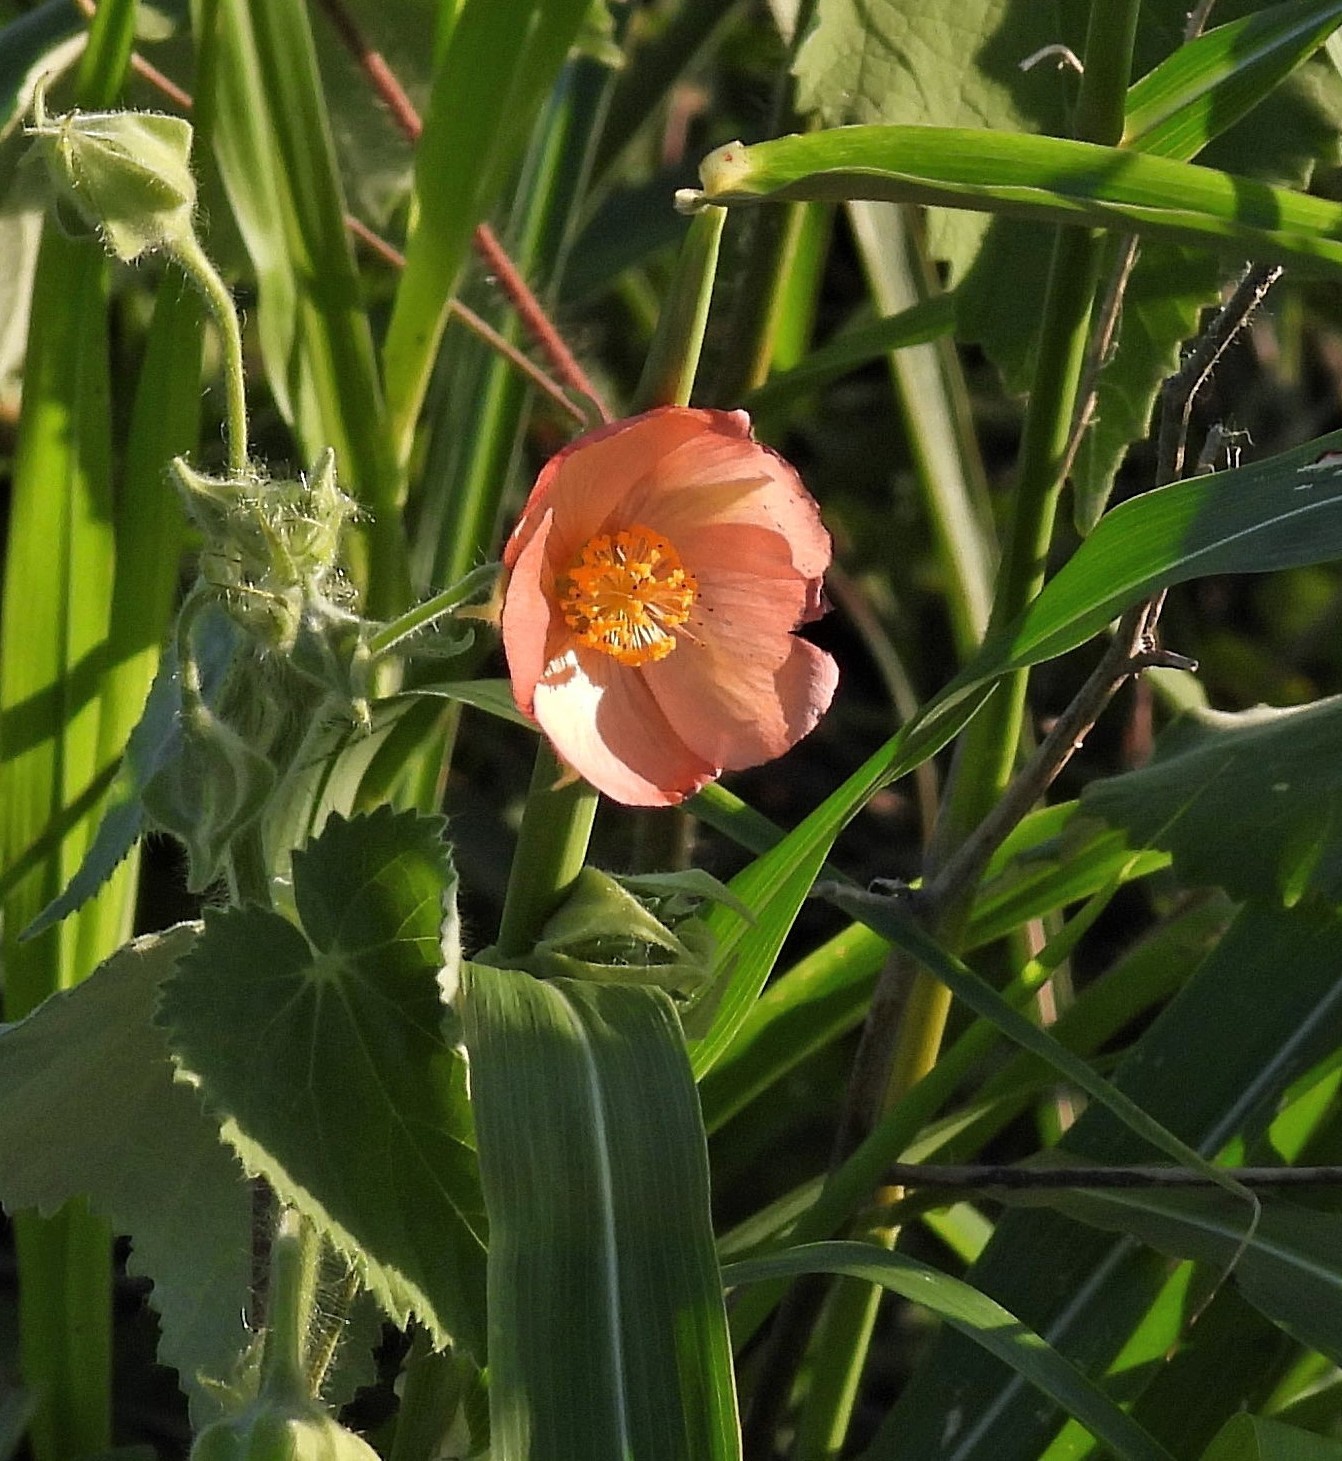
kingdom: Plantae
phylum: Tracheophyta
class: Magnoliopsida
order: Malvales
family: Malvaceae
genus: Callianthe
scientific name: Callianthe pauciflora
